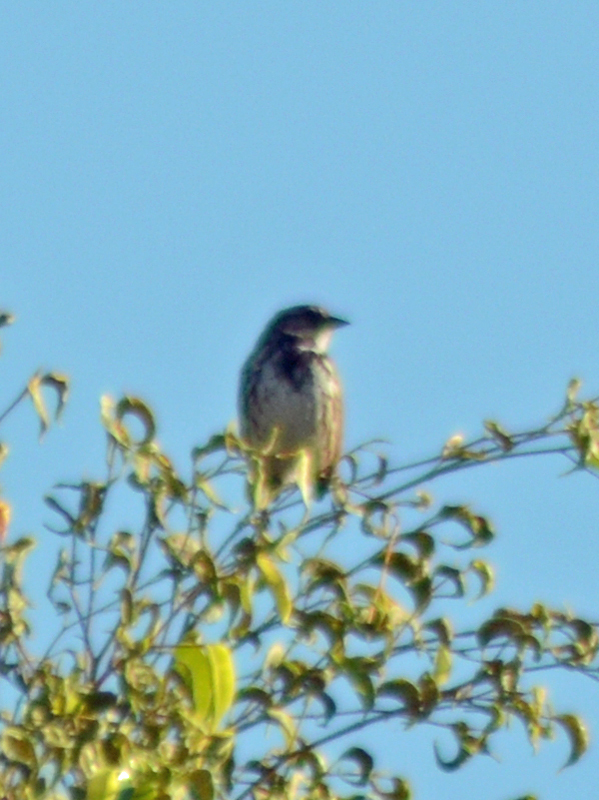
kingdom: Animalia
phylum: Chordata
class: Aves
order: Passeriformes
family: Passerellidae
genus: Melospiza
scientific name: Melospiza melodia
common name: Song sparrow
